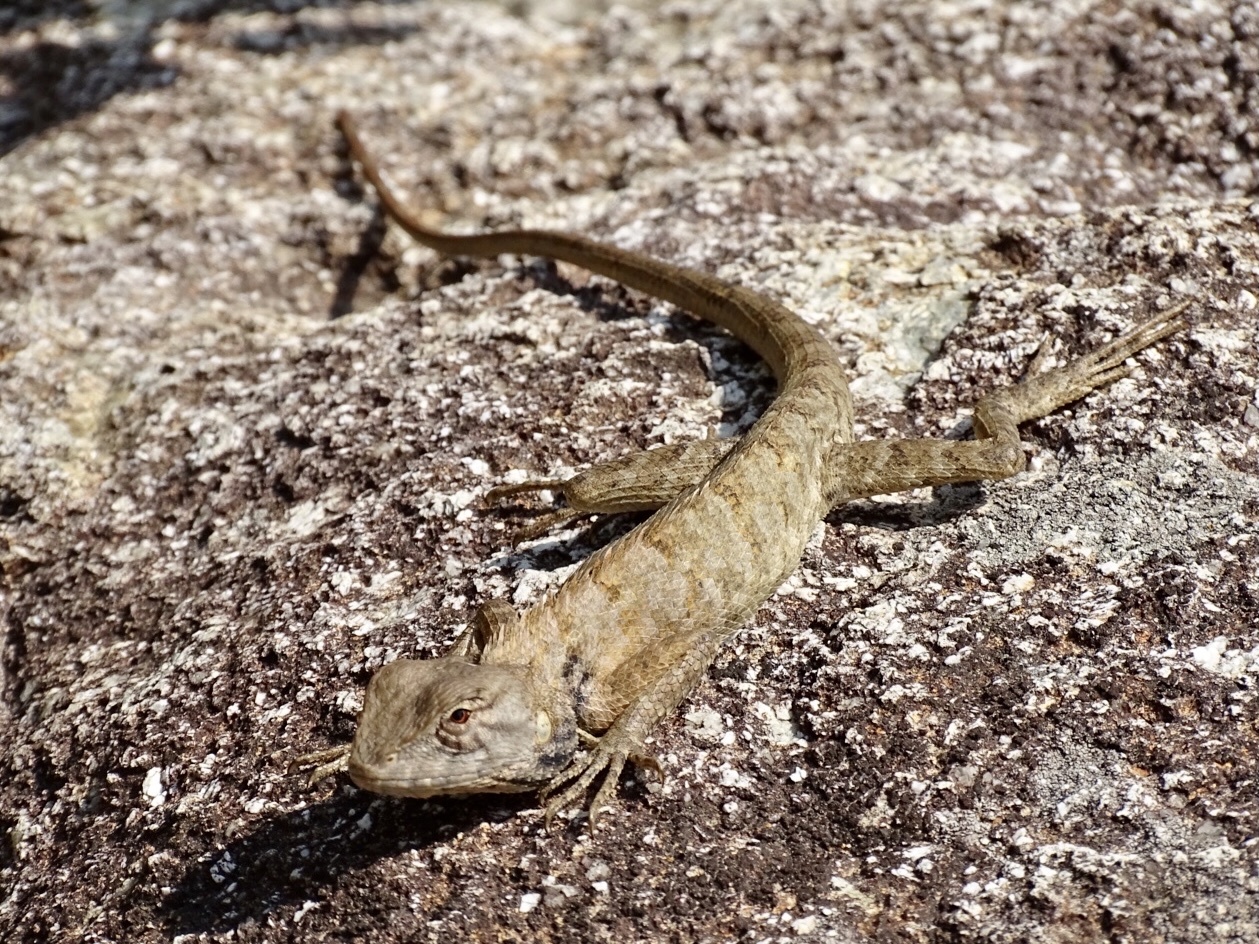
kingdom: Animalia
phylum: Chordata
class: Squamata
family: Agamidae
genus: Calotes
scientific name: Calotes versicolor
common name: Oriental garden lizard
